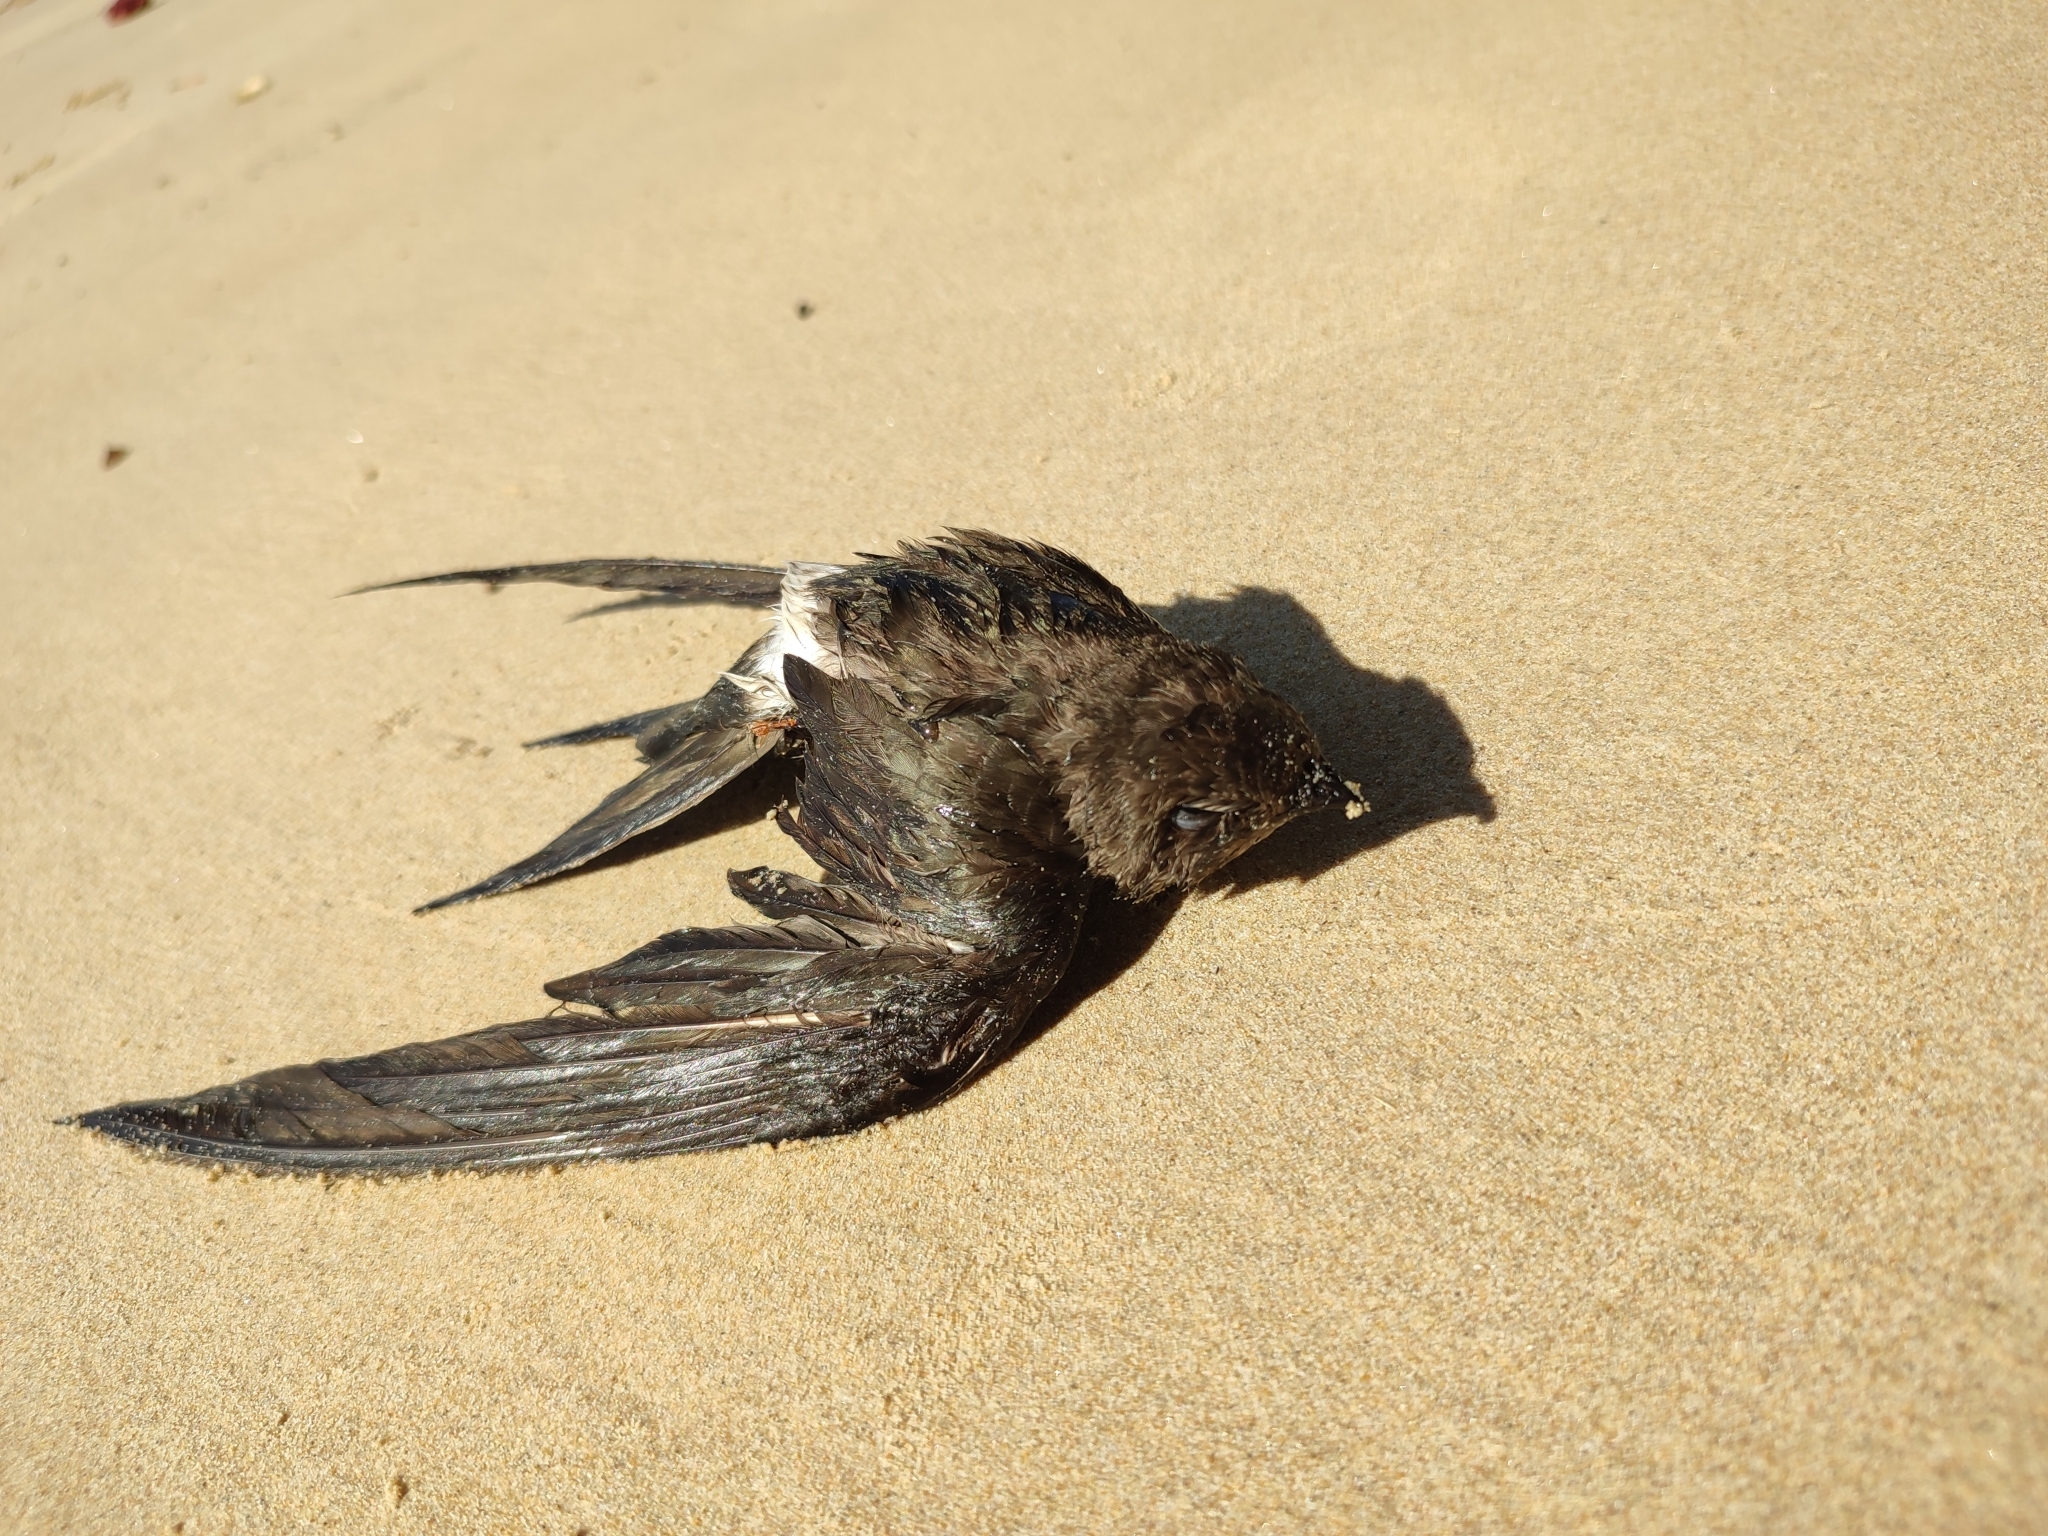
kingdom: Animalia
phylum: Chordata
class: Aves
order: Apodiformes
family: Apodidae
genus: Apus
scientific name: Apus pacificus
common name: Pacific swift
